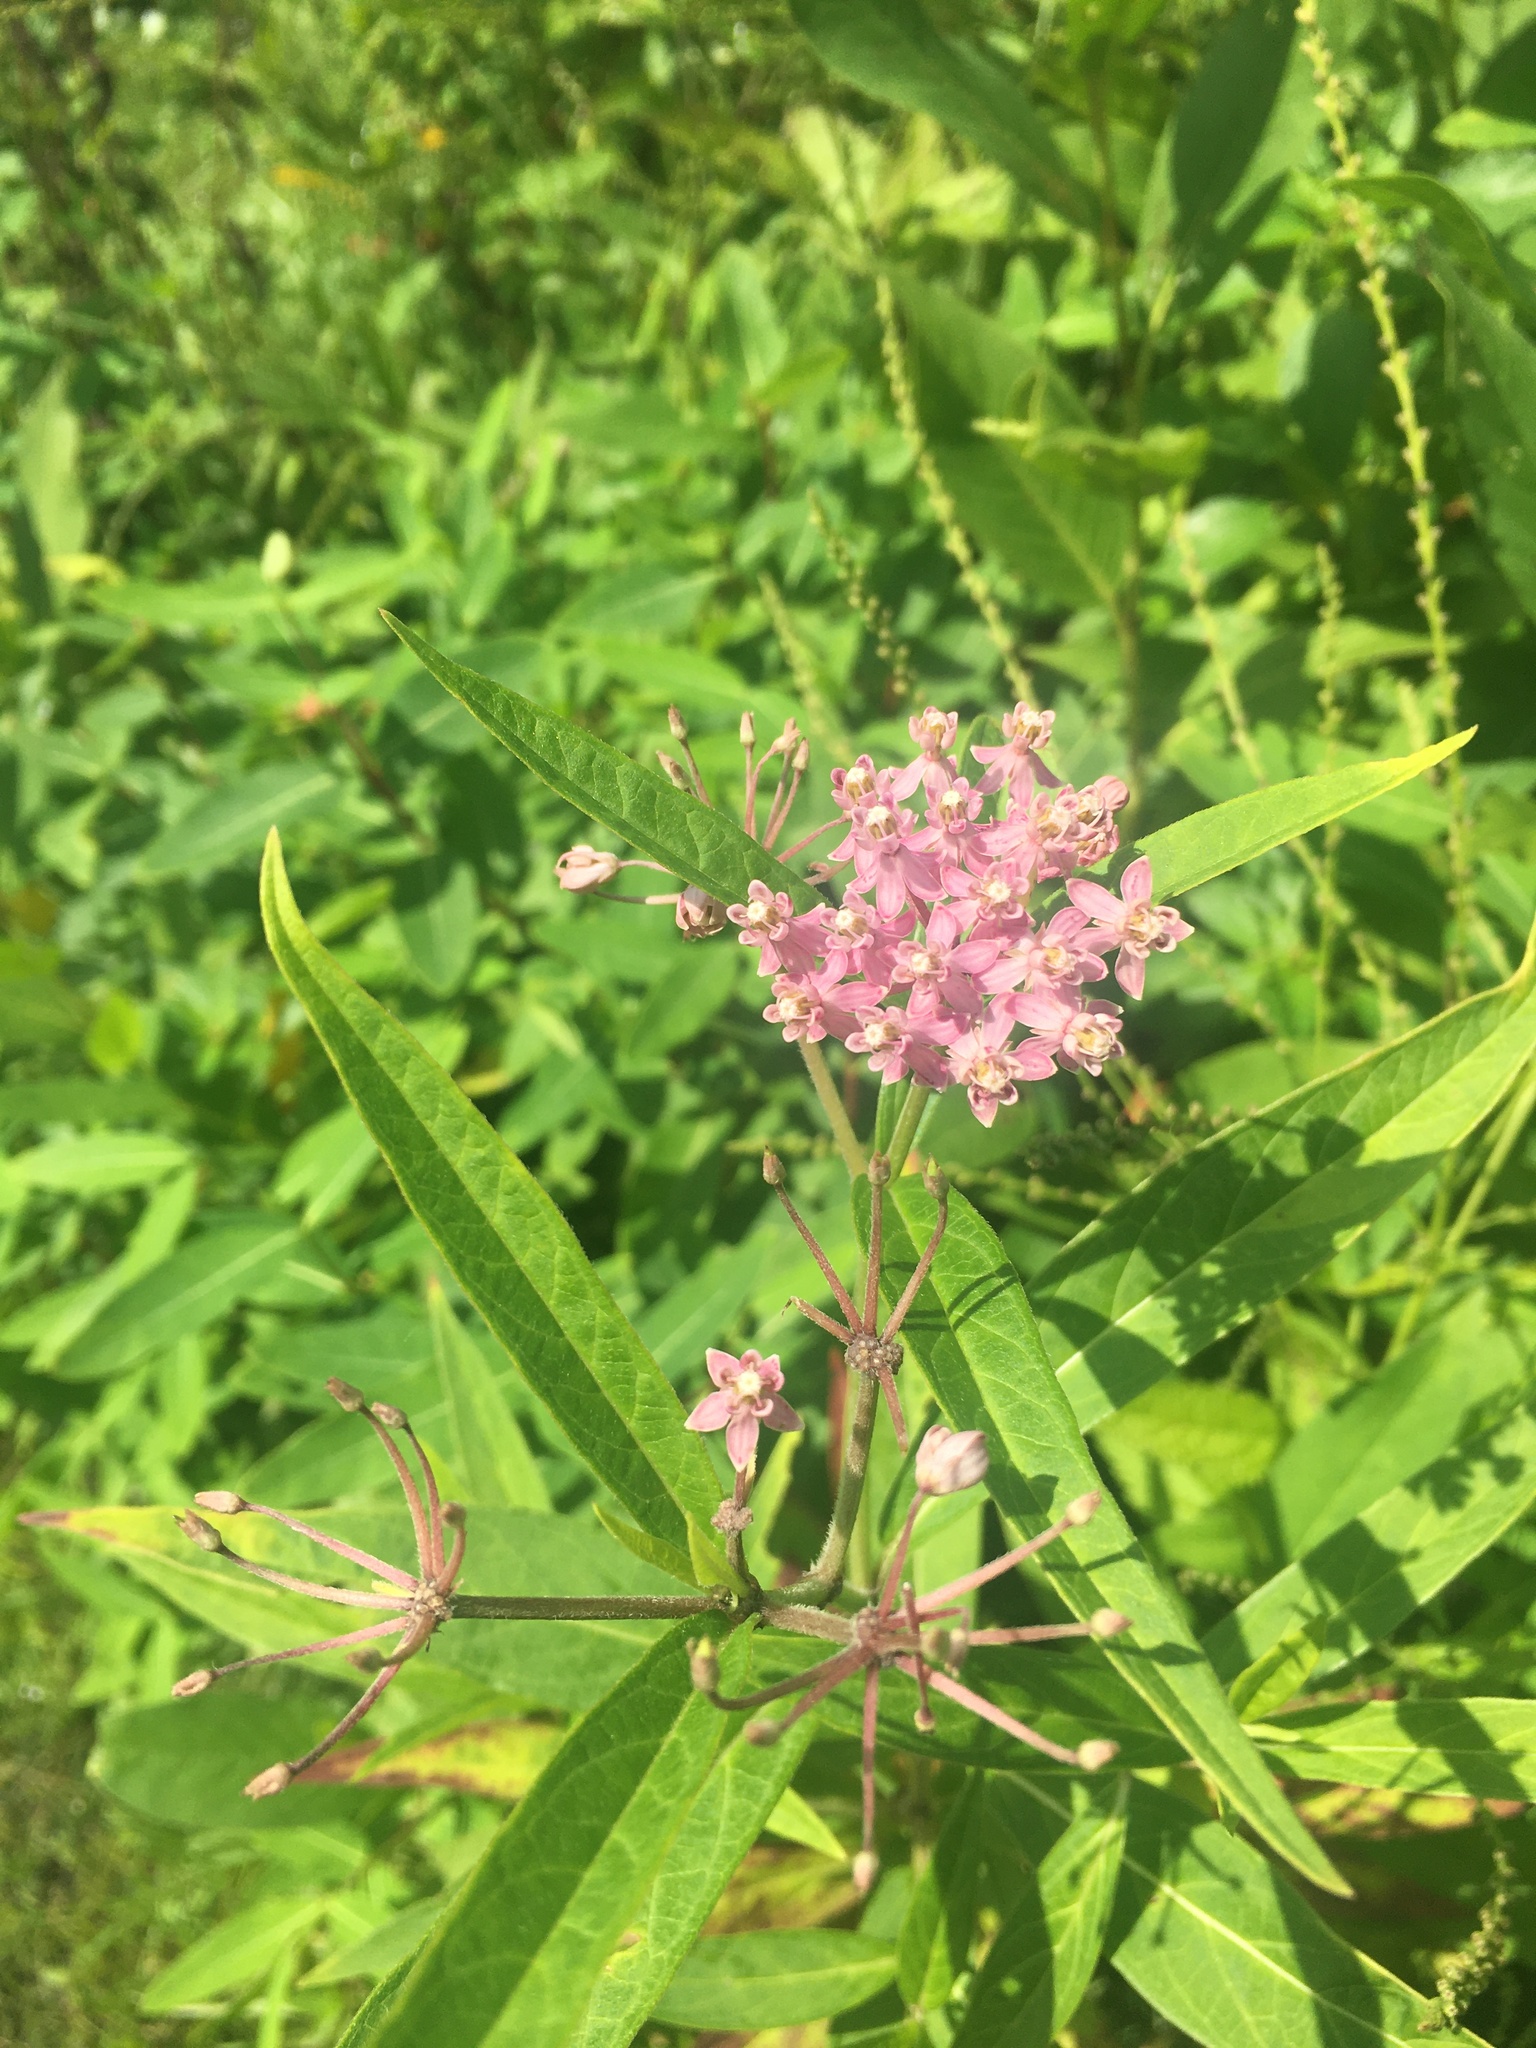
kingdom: Plantae
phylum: Tracheophyta
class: Magnoliopsida
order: Gentianales
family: Apocynaceae
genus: Asclepias
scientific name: Asclepias incarnata
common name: Swamp milkweed
